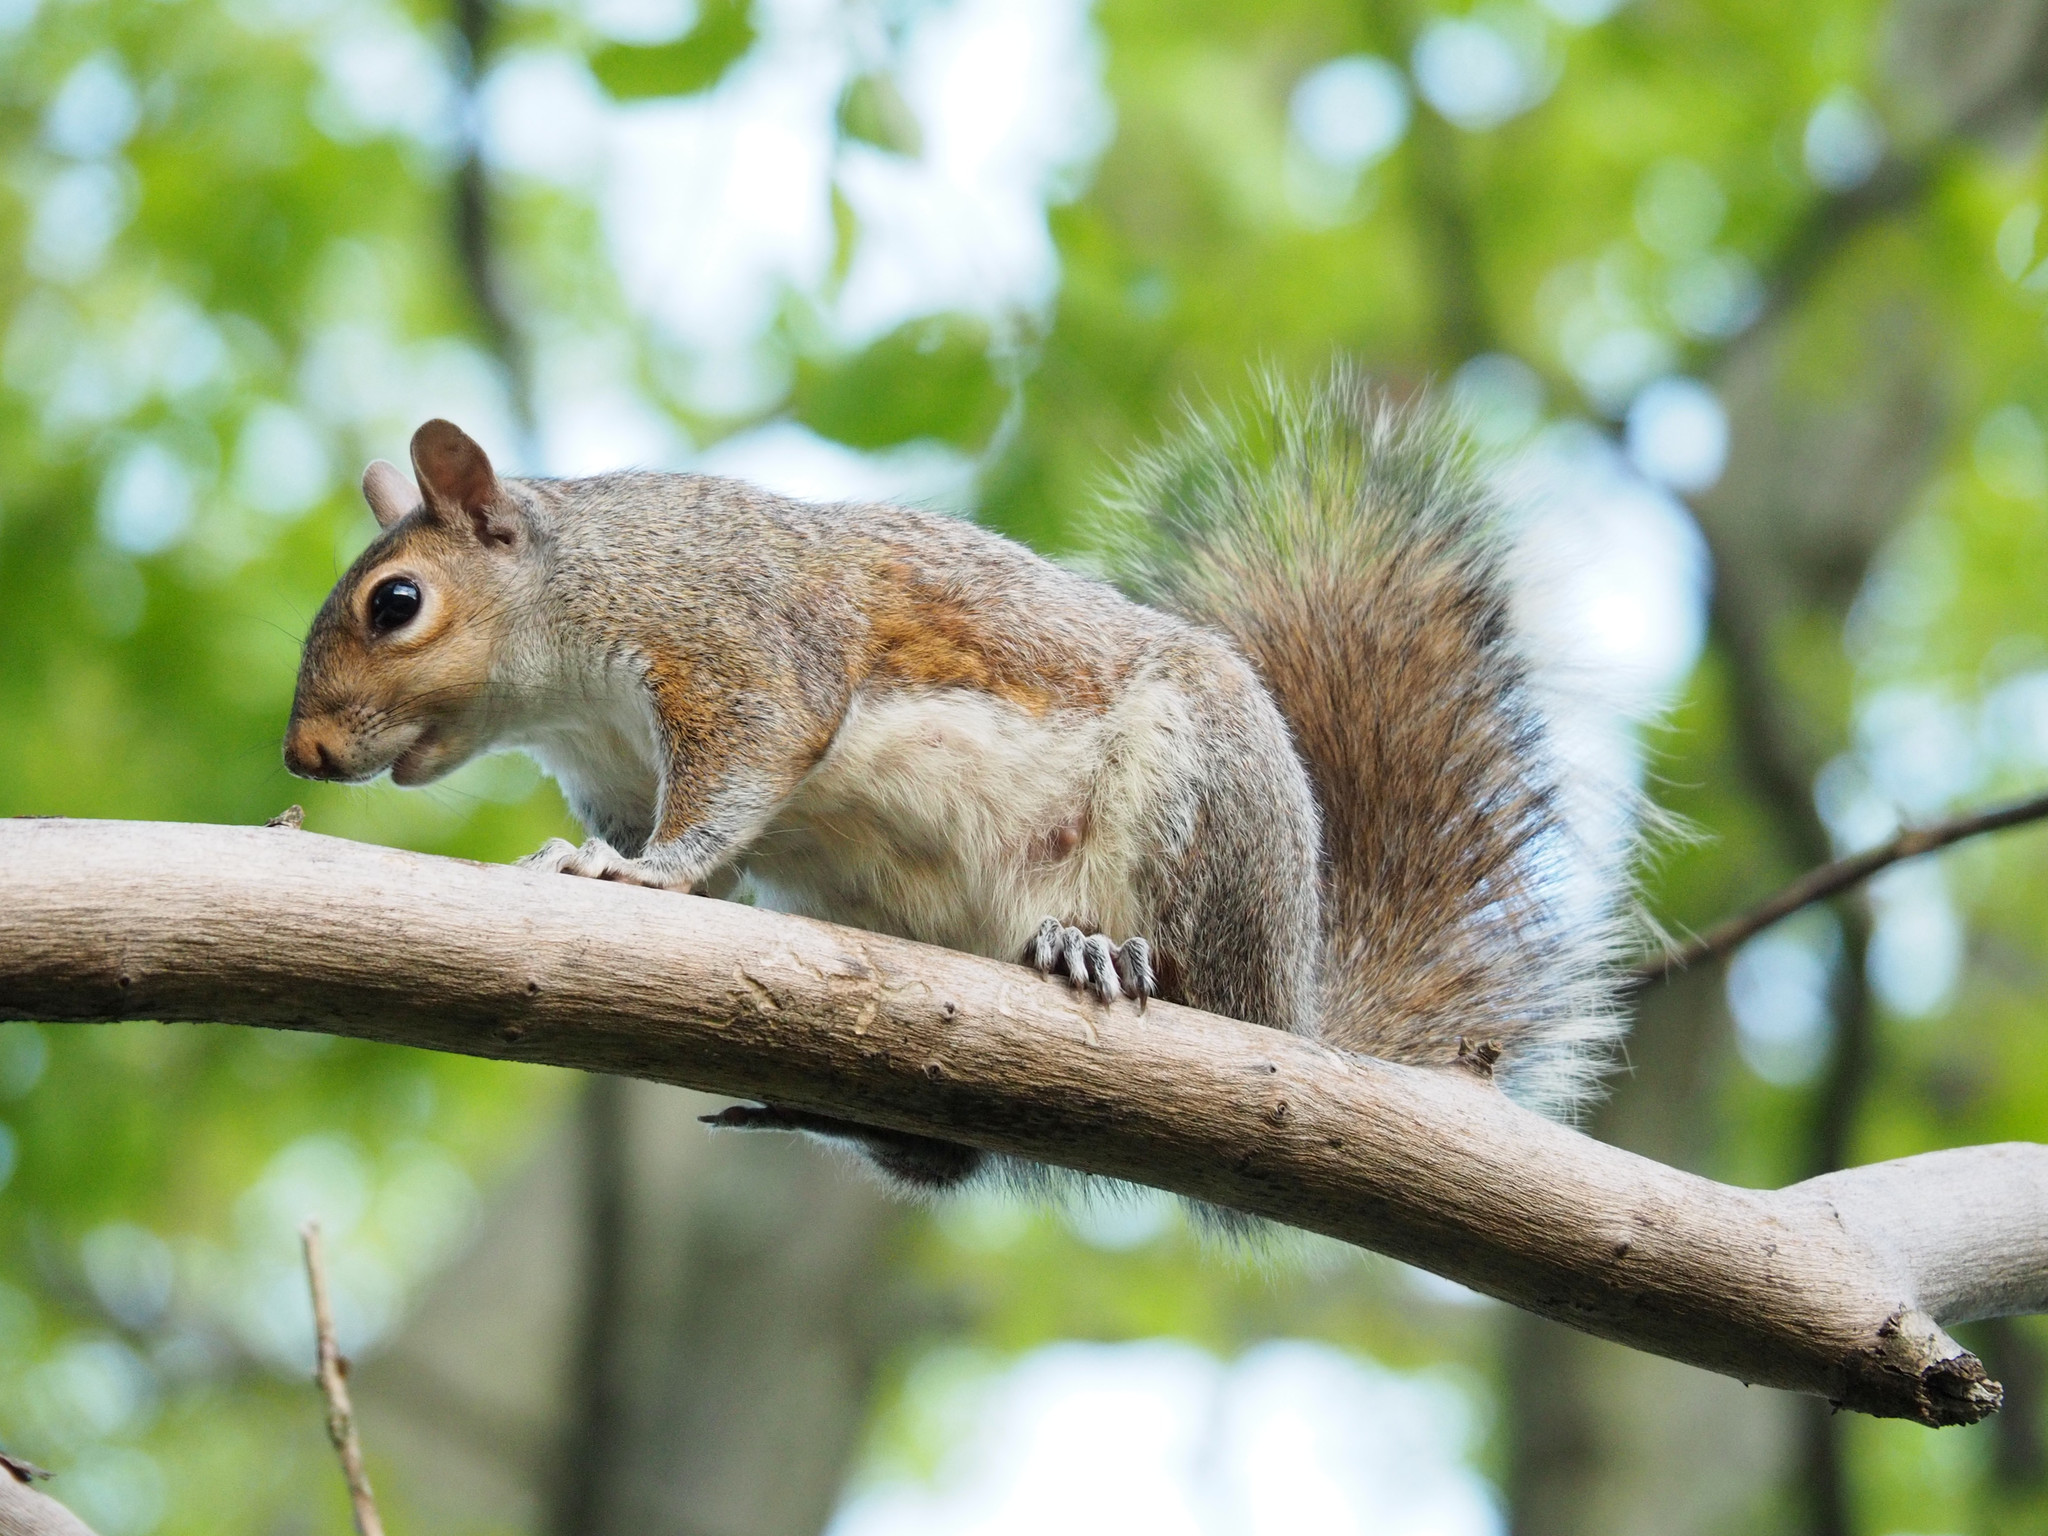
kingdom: Animalia
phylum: Chordata
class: Mammalia
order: Rodentia
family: Sciuridae
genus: Sciurus
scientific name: Sciurus carolinensis
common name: Eastern gray squirrel
